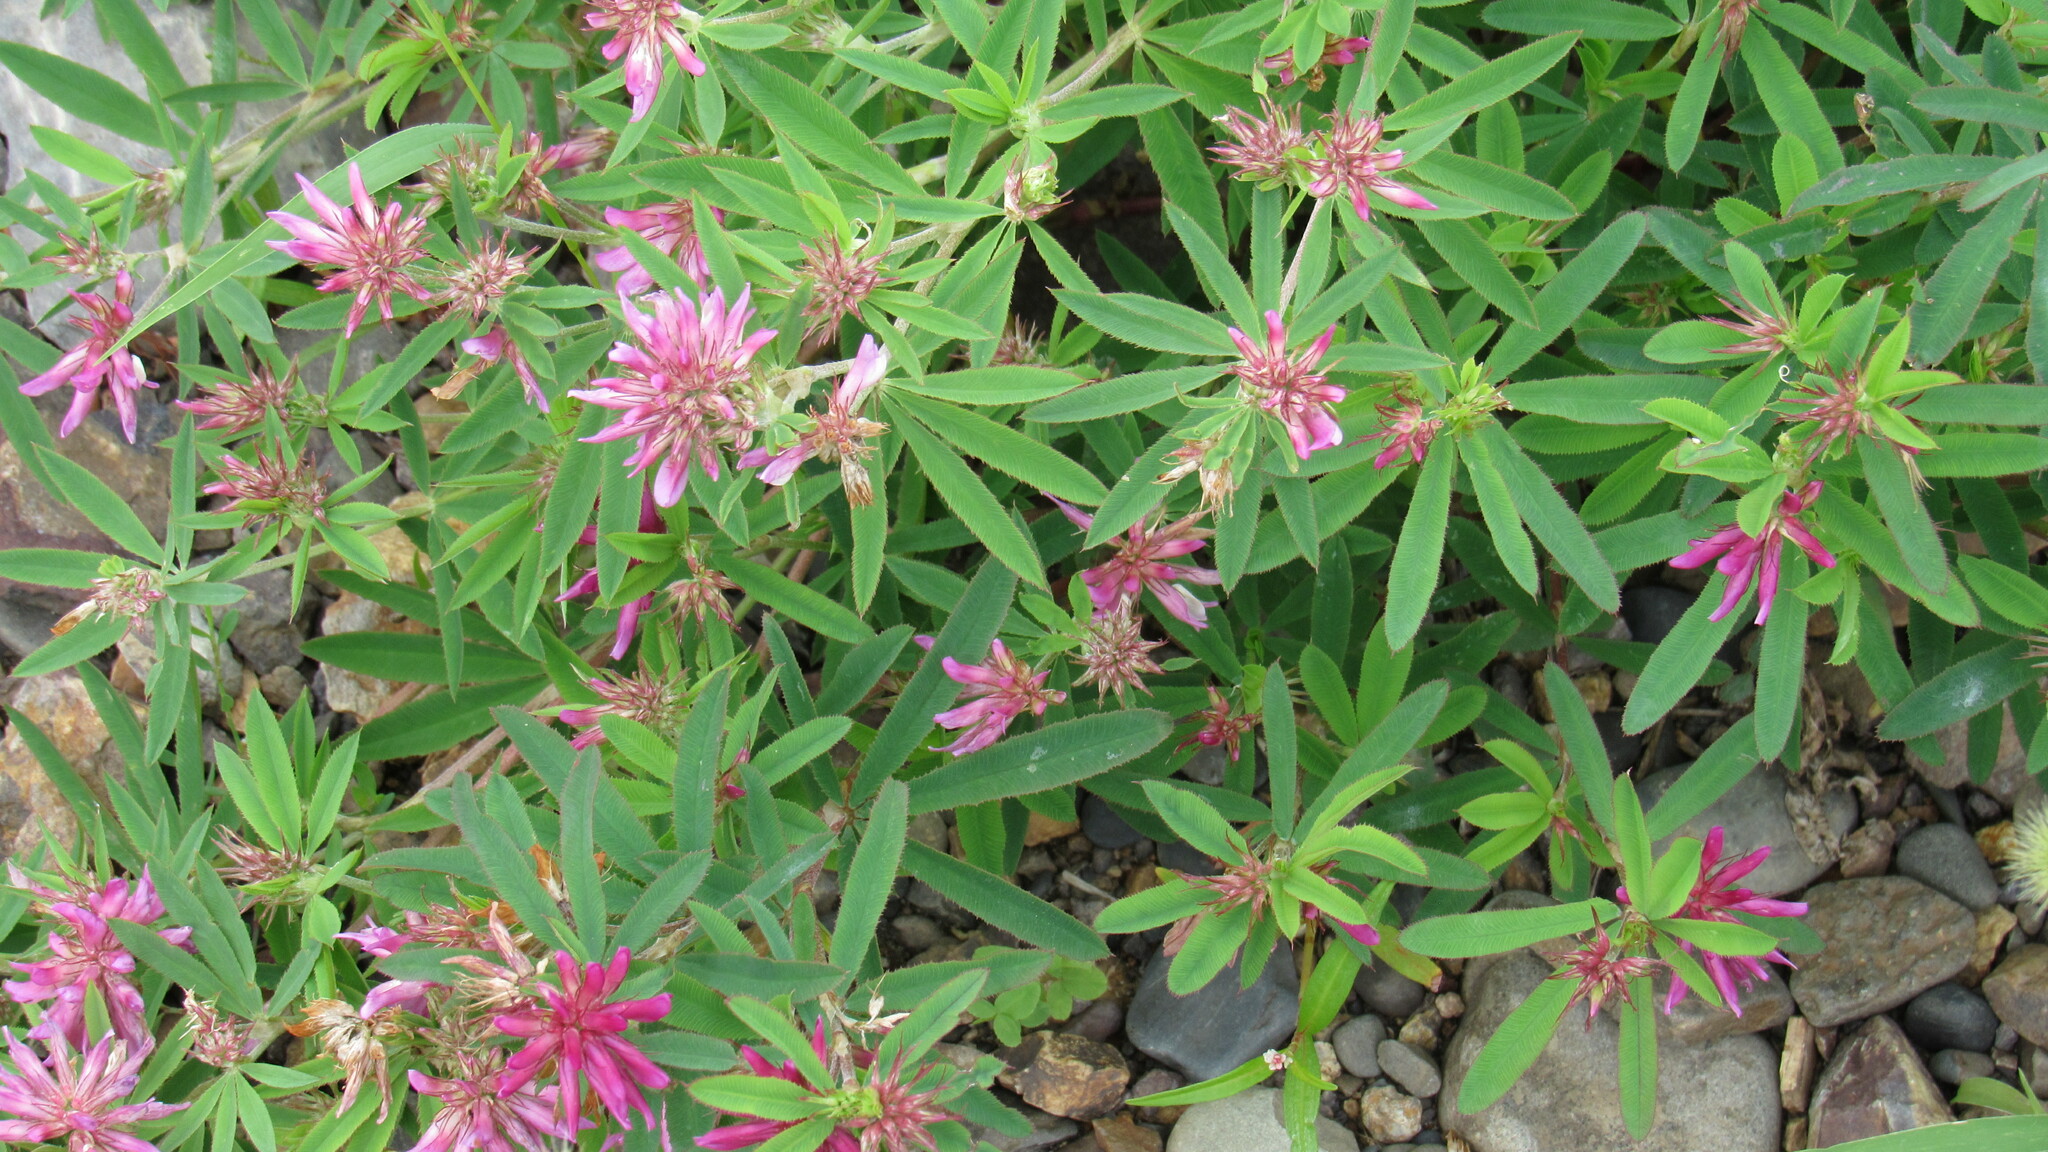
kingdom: Plantae
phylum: Tracheophyta
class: Magnoliopsida
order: Fabales
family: Fabaceae
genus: Trifolium
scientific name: Trifolium lupinaster
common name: Lupine clover
